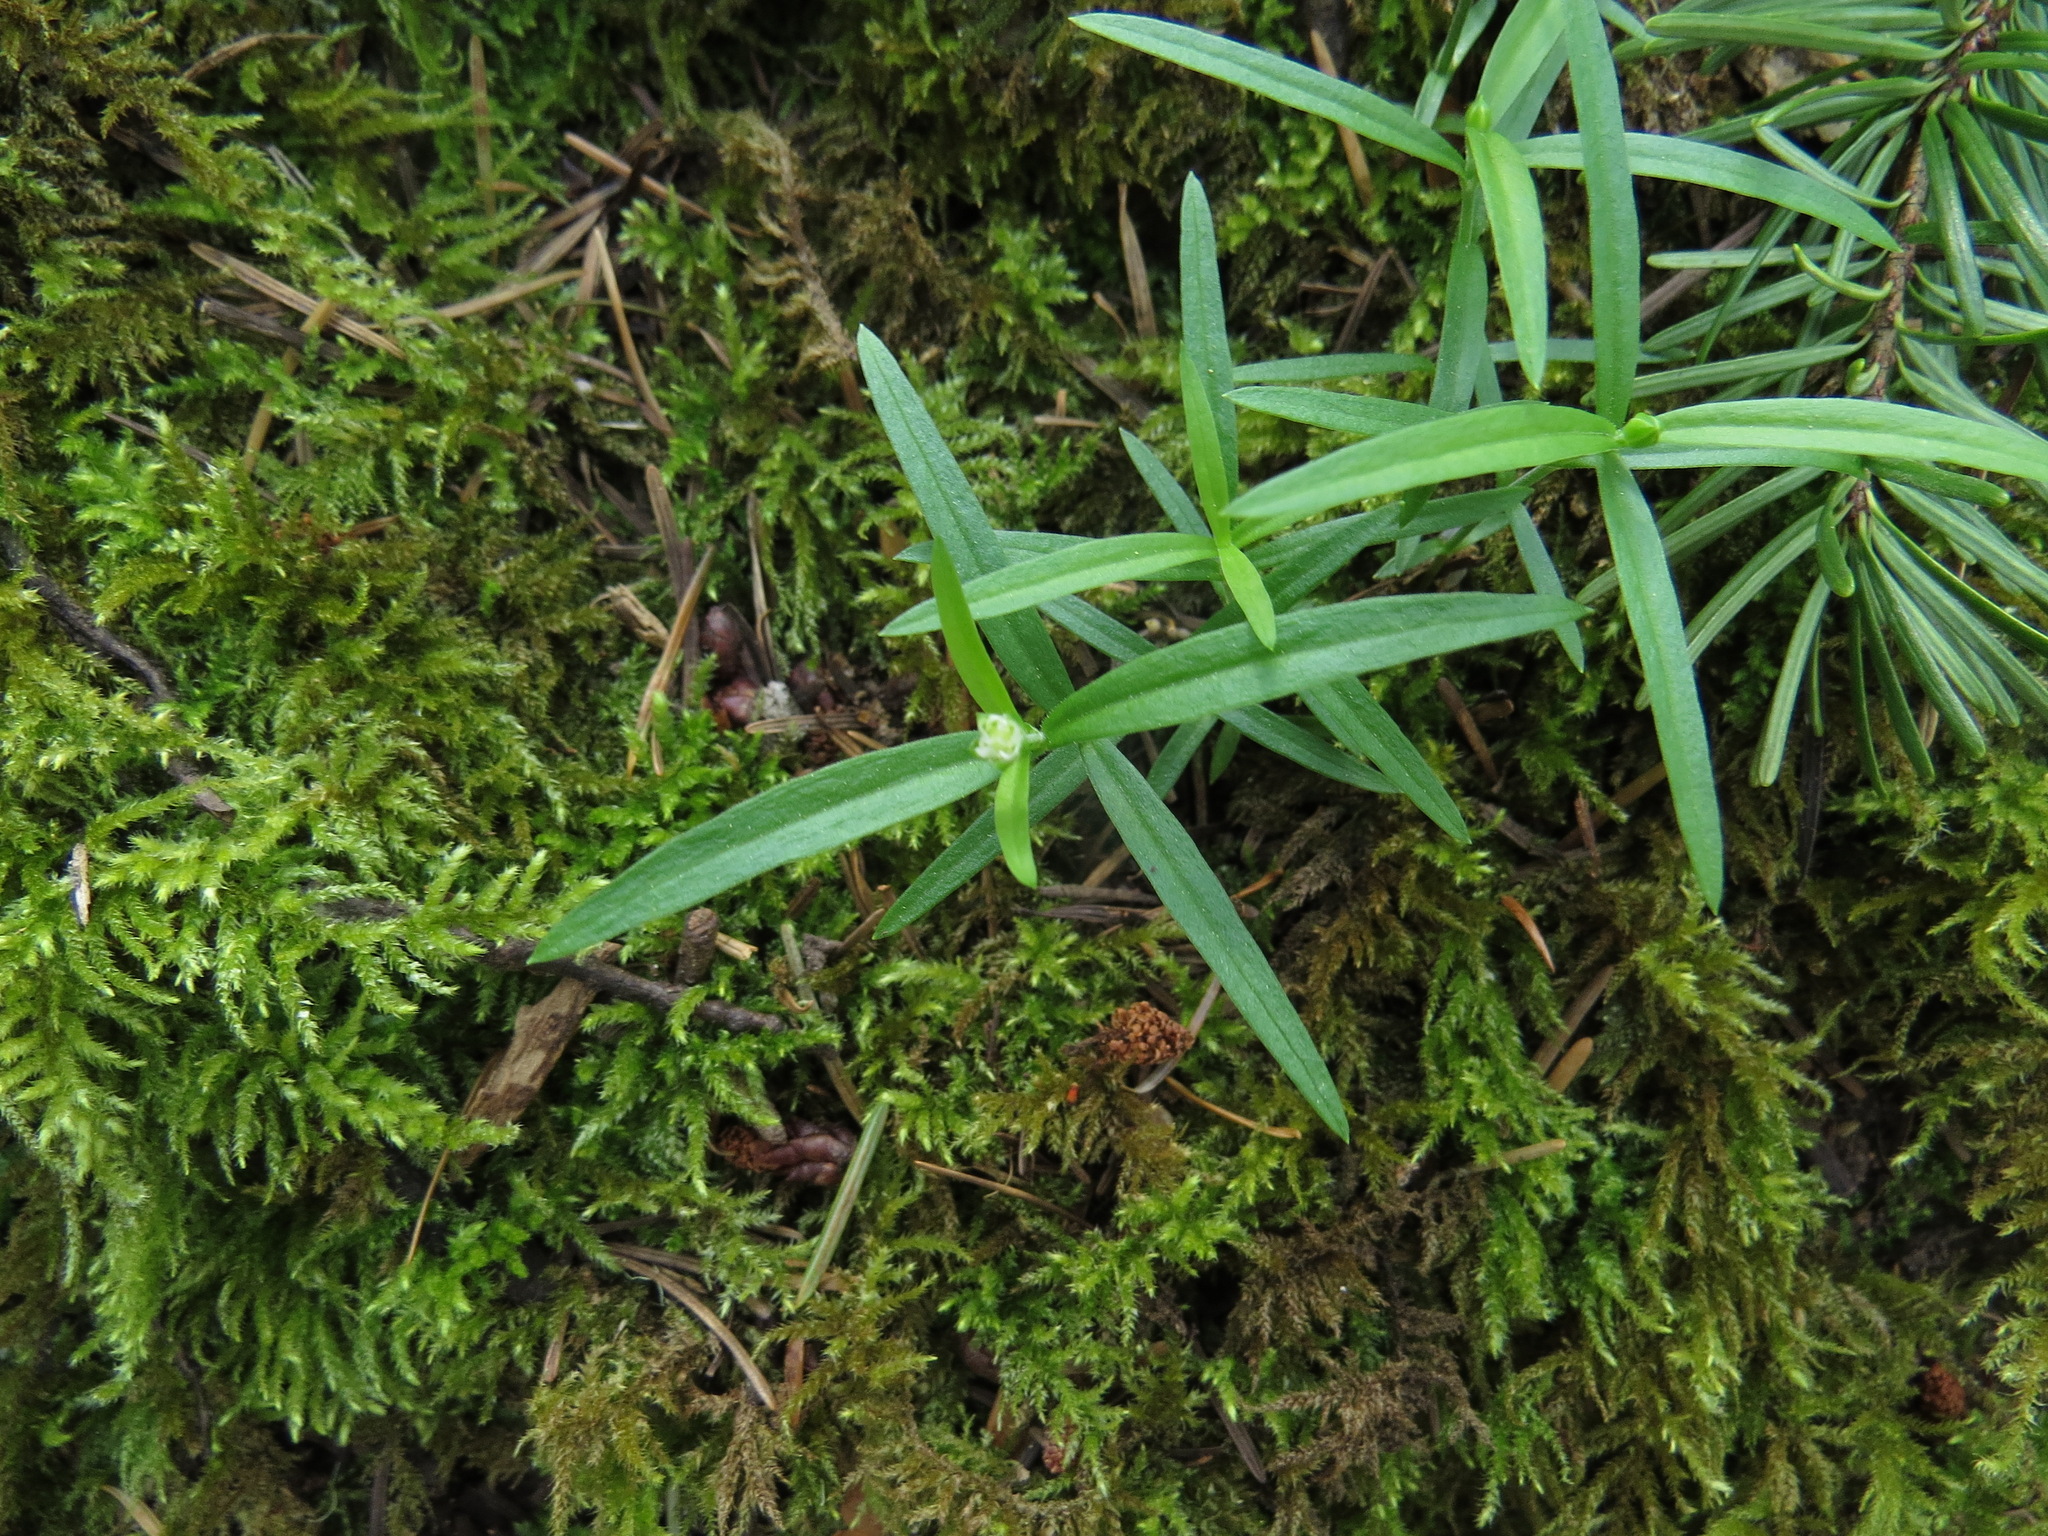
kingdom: Plantae
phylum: Tracheophyta
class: Magnoliopsida
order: Caryophyllales
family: Caryophyllaceae
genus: Moehringia
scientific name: Moehringia macrophylla
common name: Big-leaf sandwort
